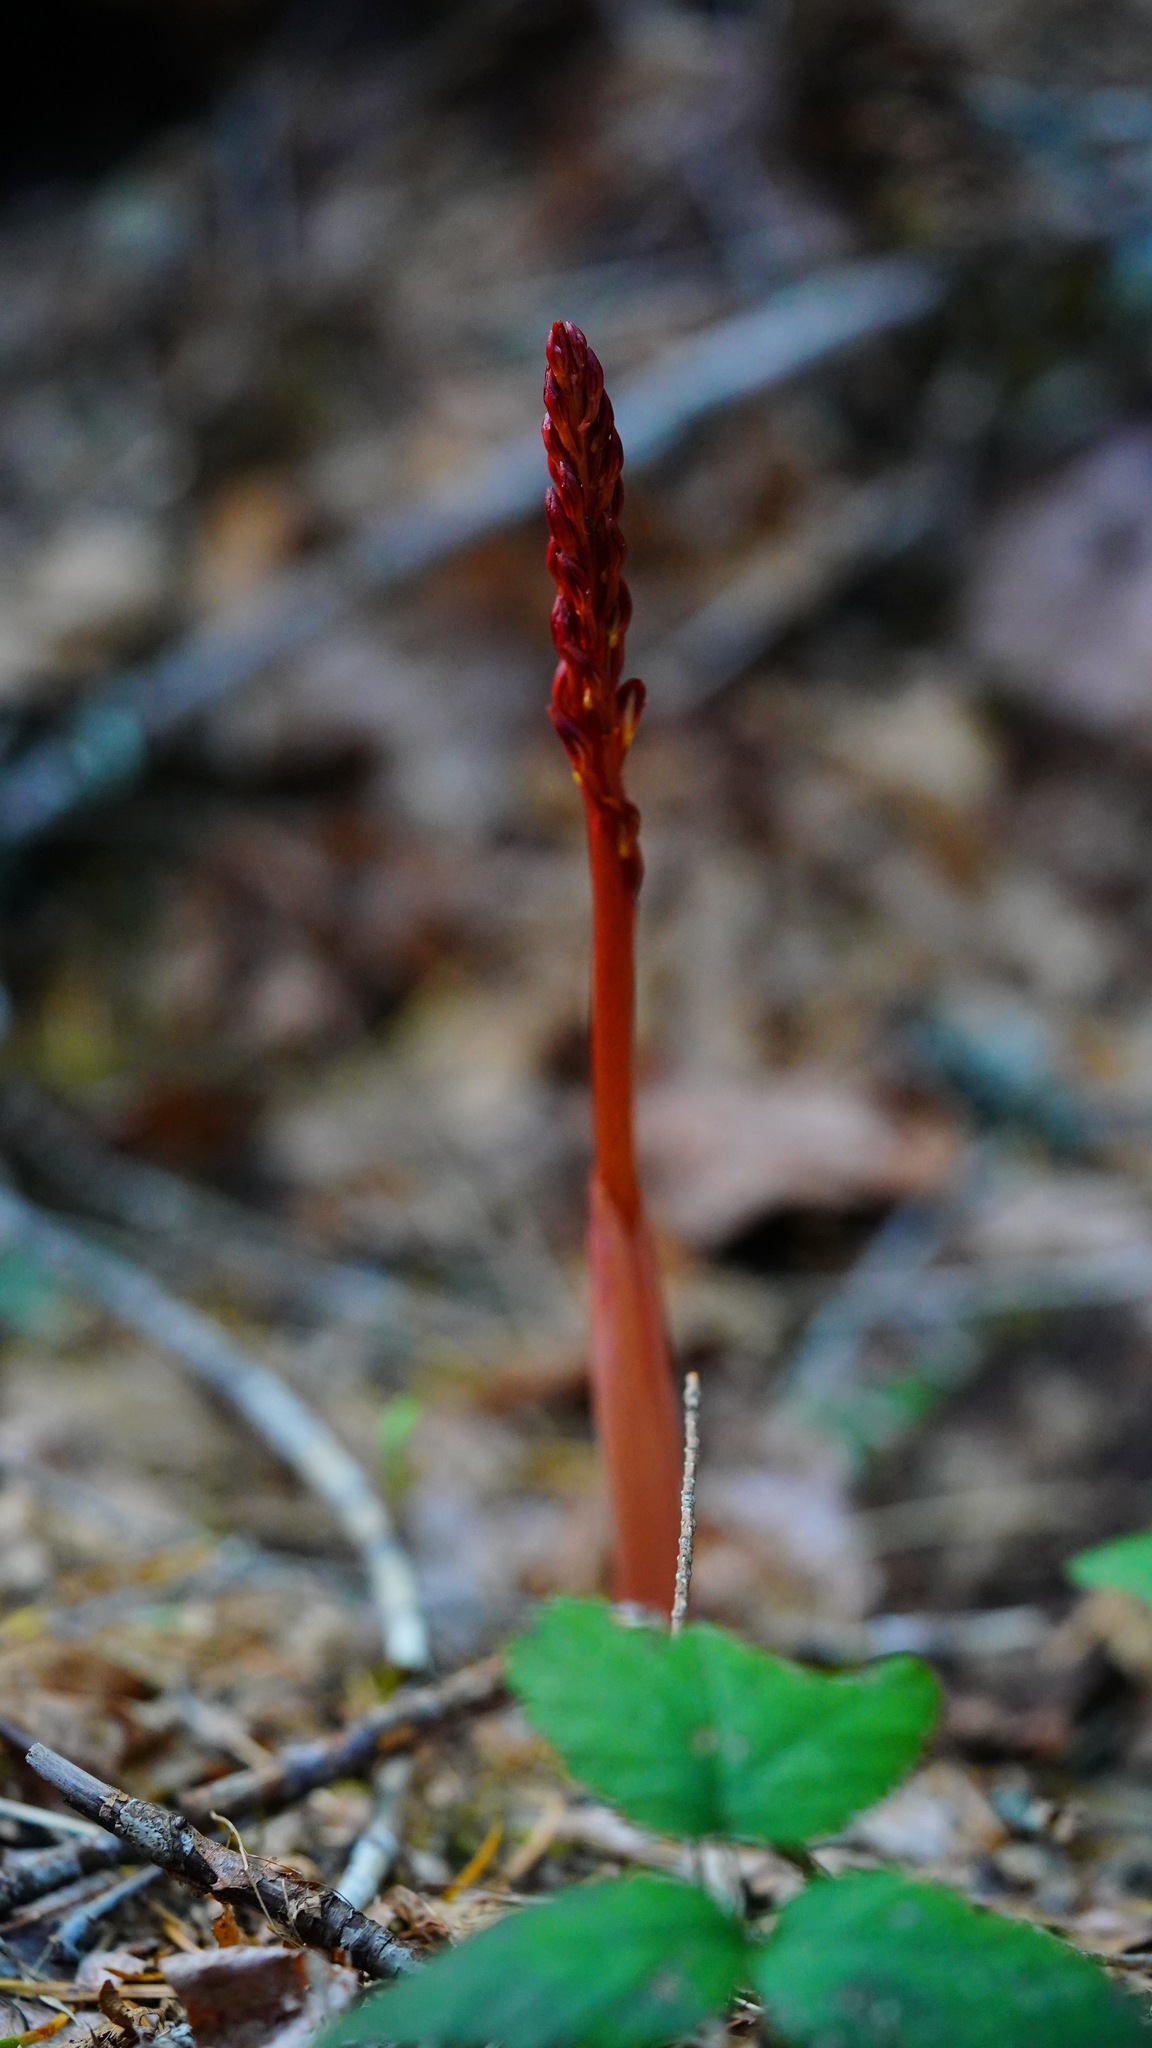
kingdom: Plantae
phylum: Tracheophyta
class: Liliopsida
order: Asparagales
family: Orchidaceae
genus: Corallorhiza
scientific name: Corallorhiza maculata
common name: Spotted coralroot
